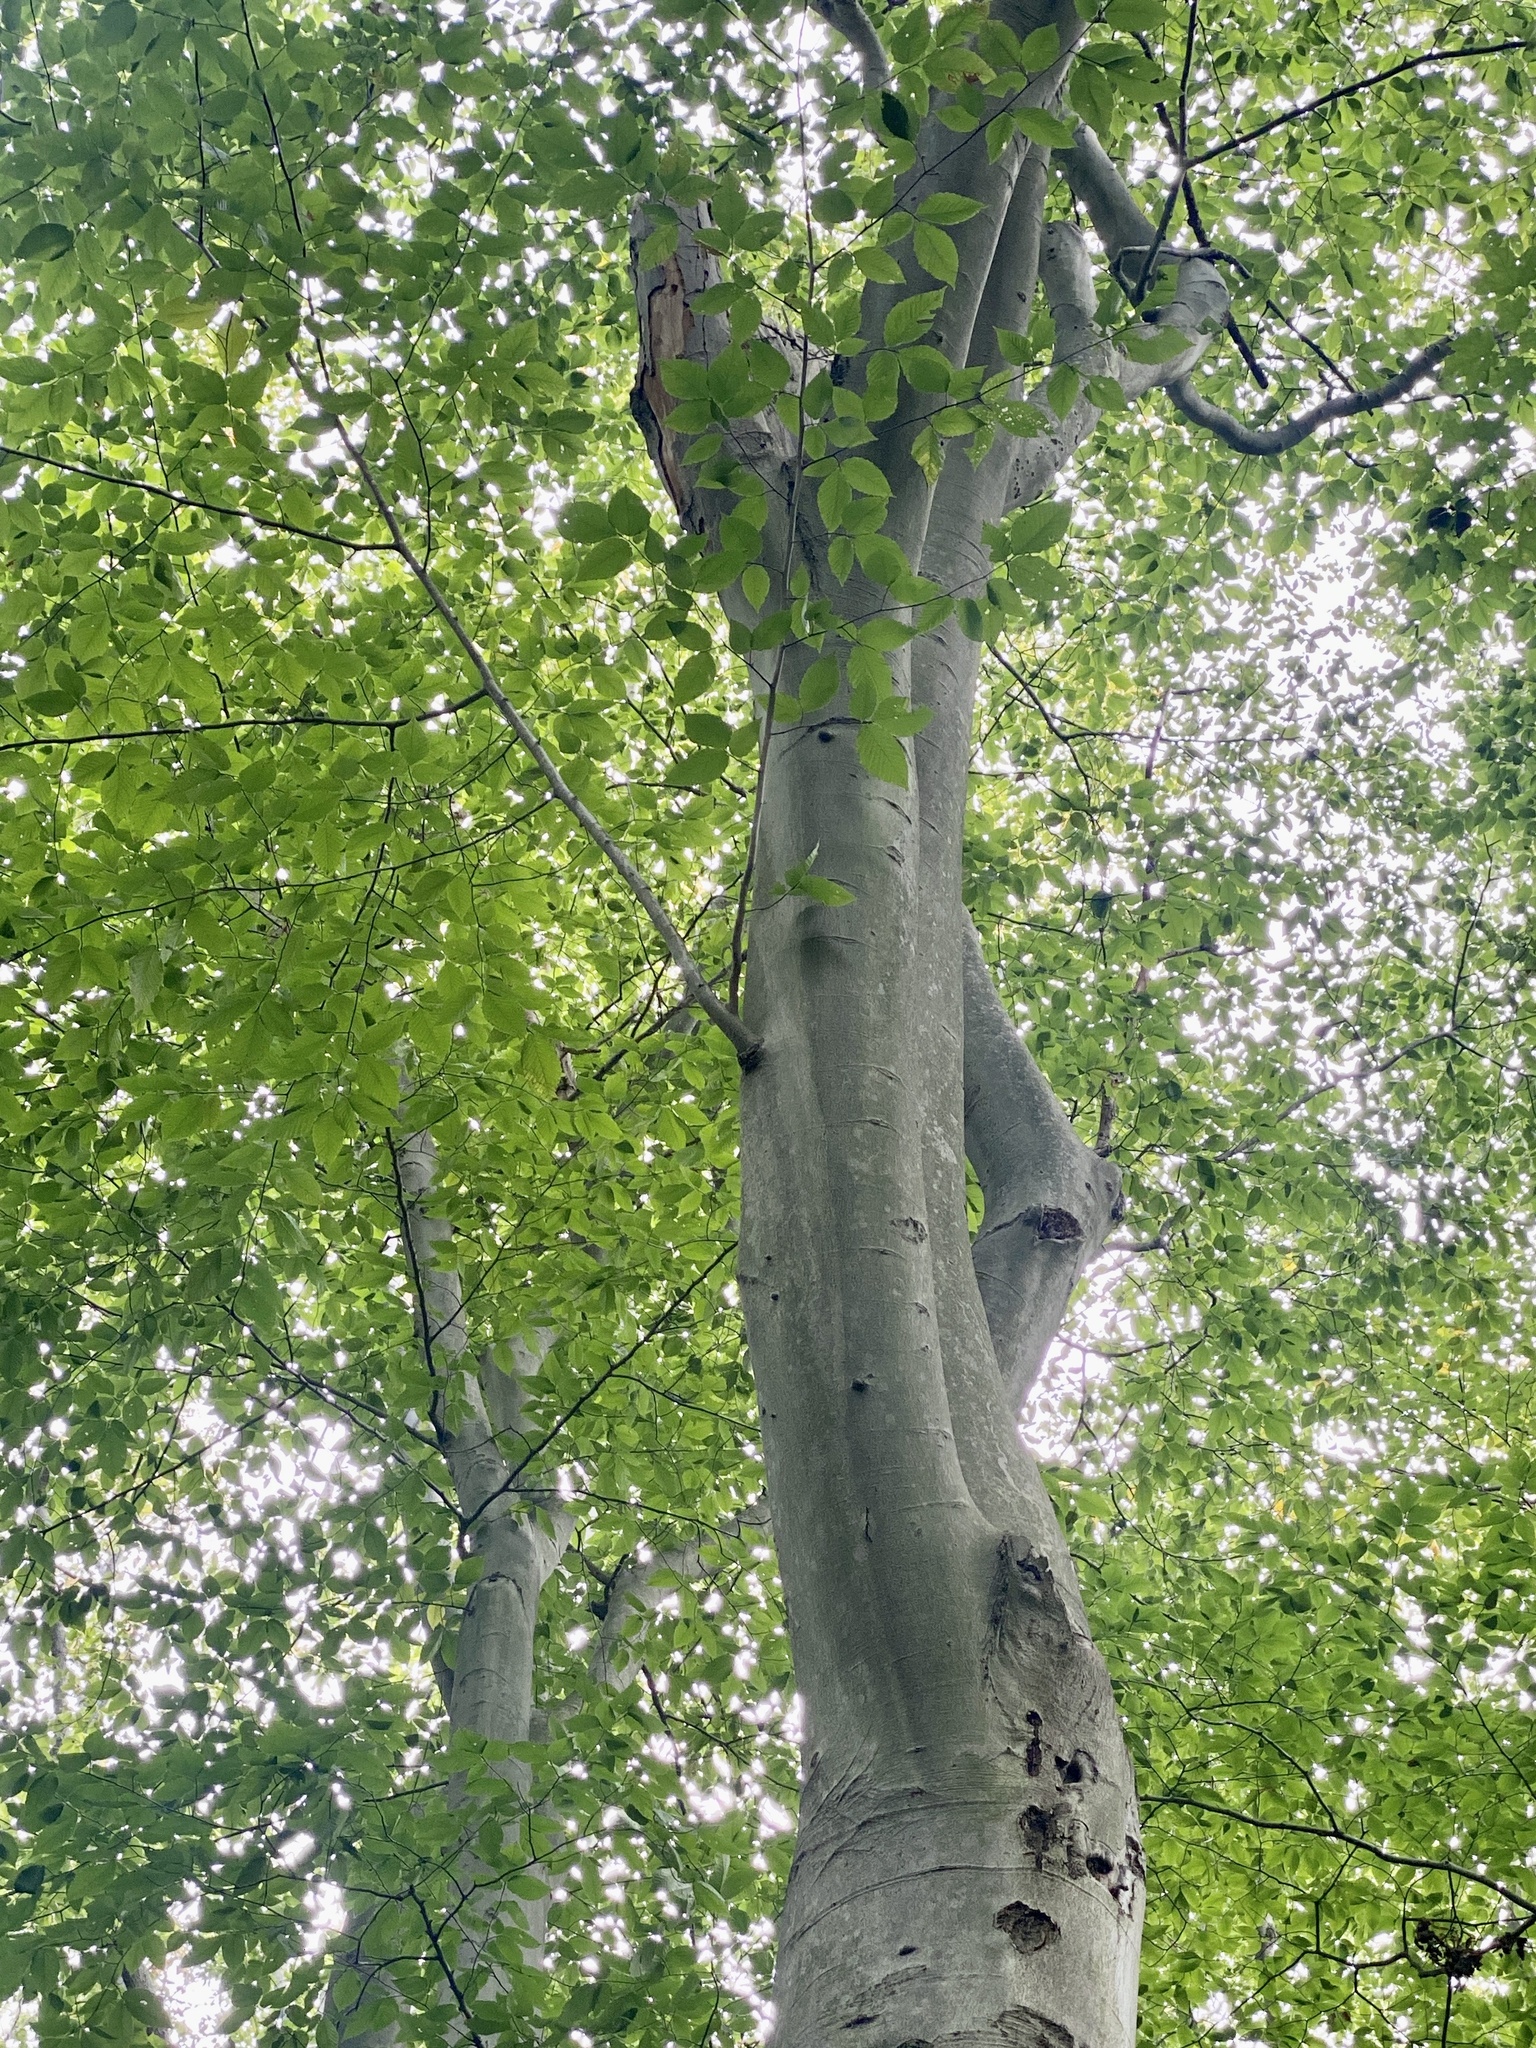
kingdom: Plantae
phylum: Tracheophyta
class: Magnoliopsida
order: Fagales
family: Fagaceae
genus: Fagus
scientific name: Fagus grandifolia
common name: American beech
